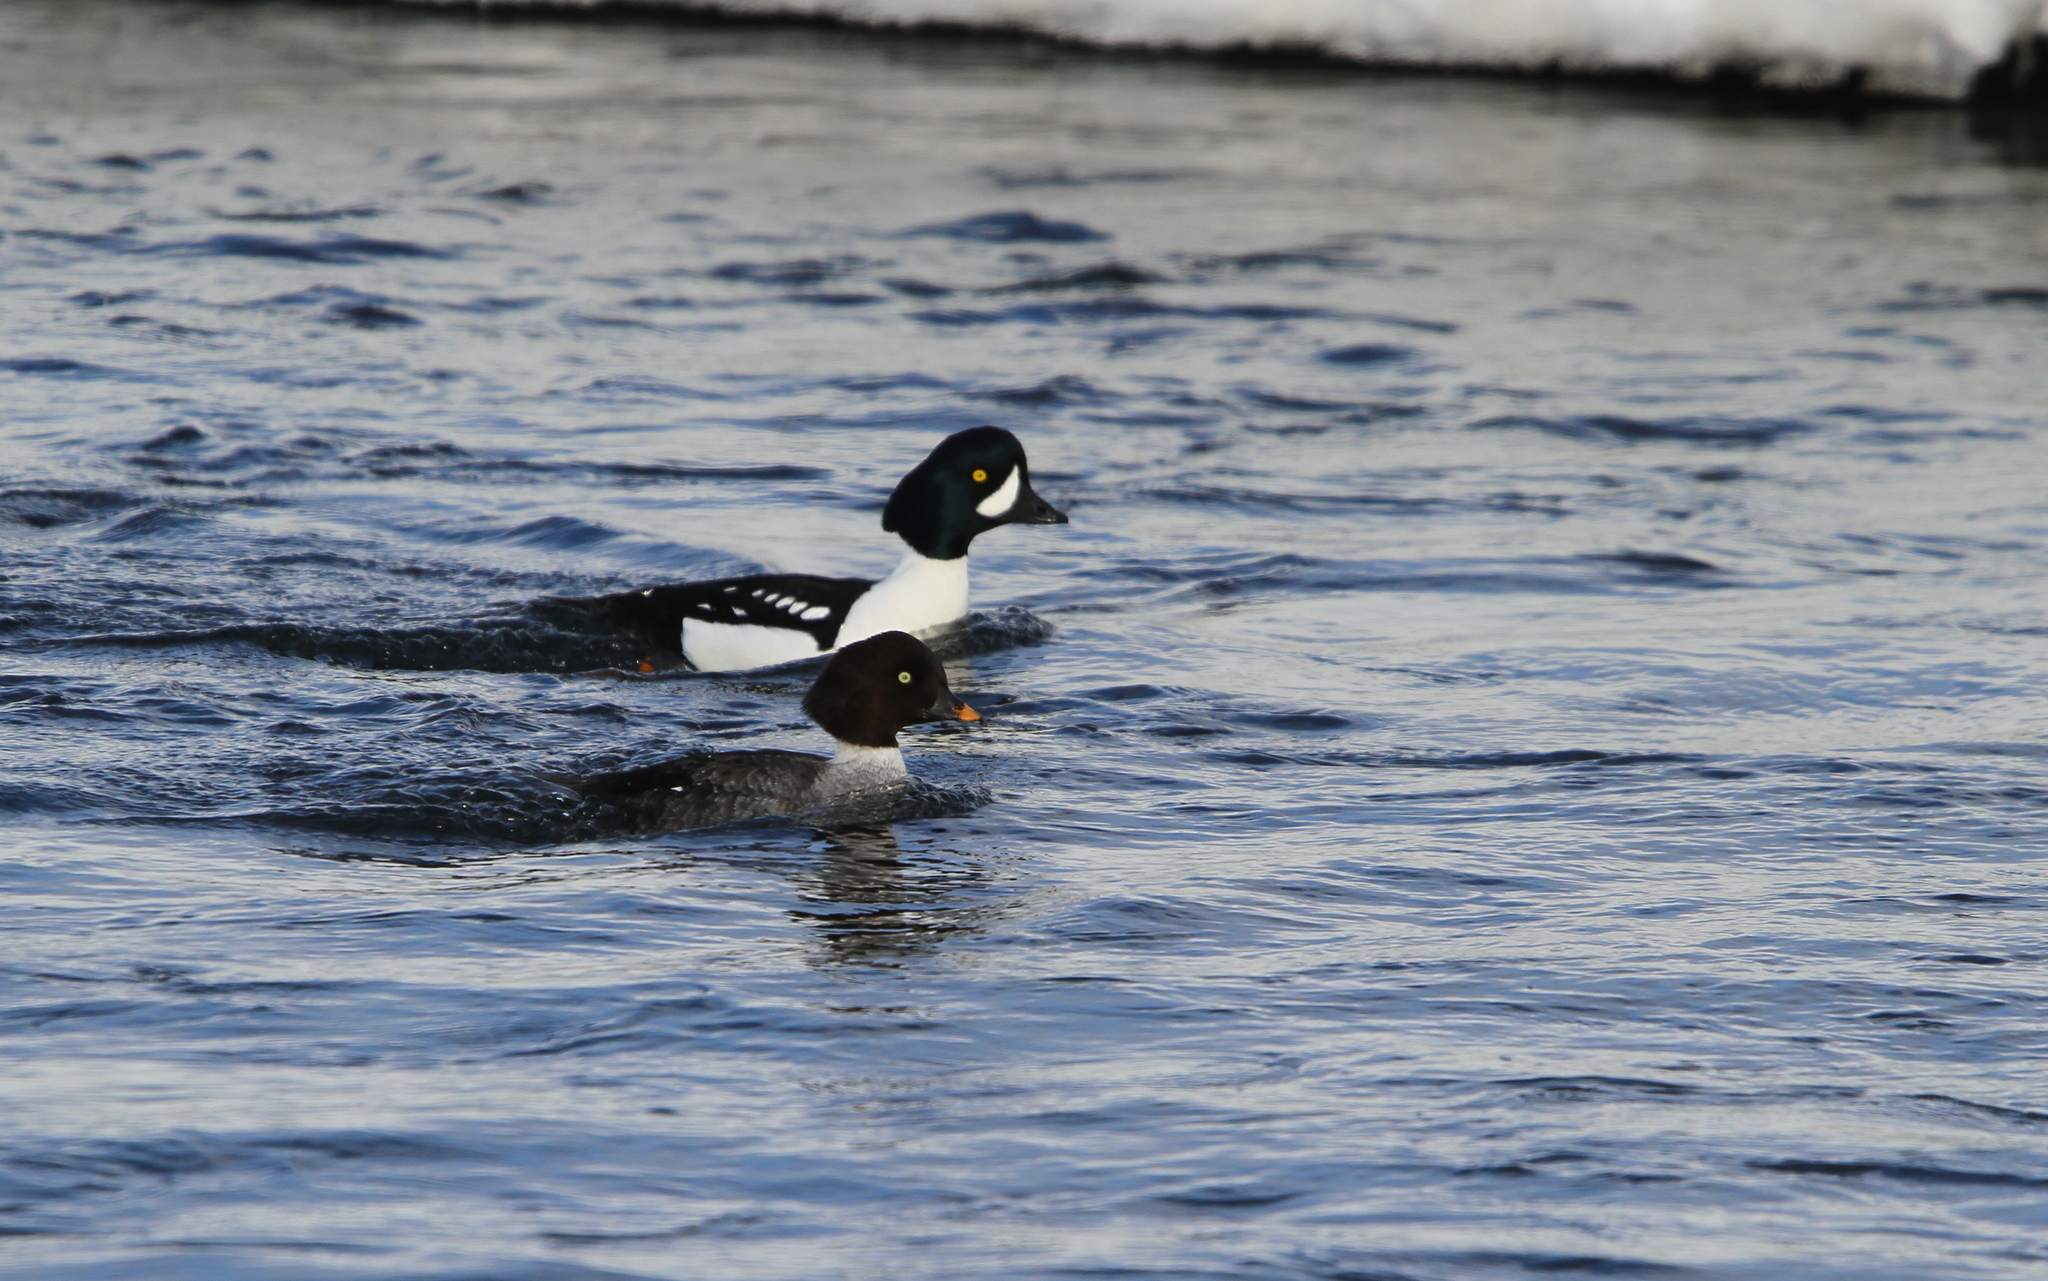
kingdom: Animalia
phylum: Chordata
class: Aves
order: Anseriformes
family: Anatidae
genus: Bucephala
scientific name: Bucephala islandica
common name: Barrow's goldeneye
